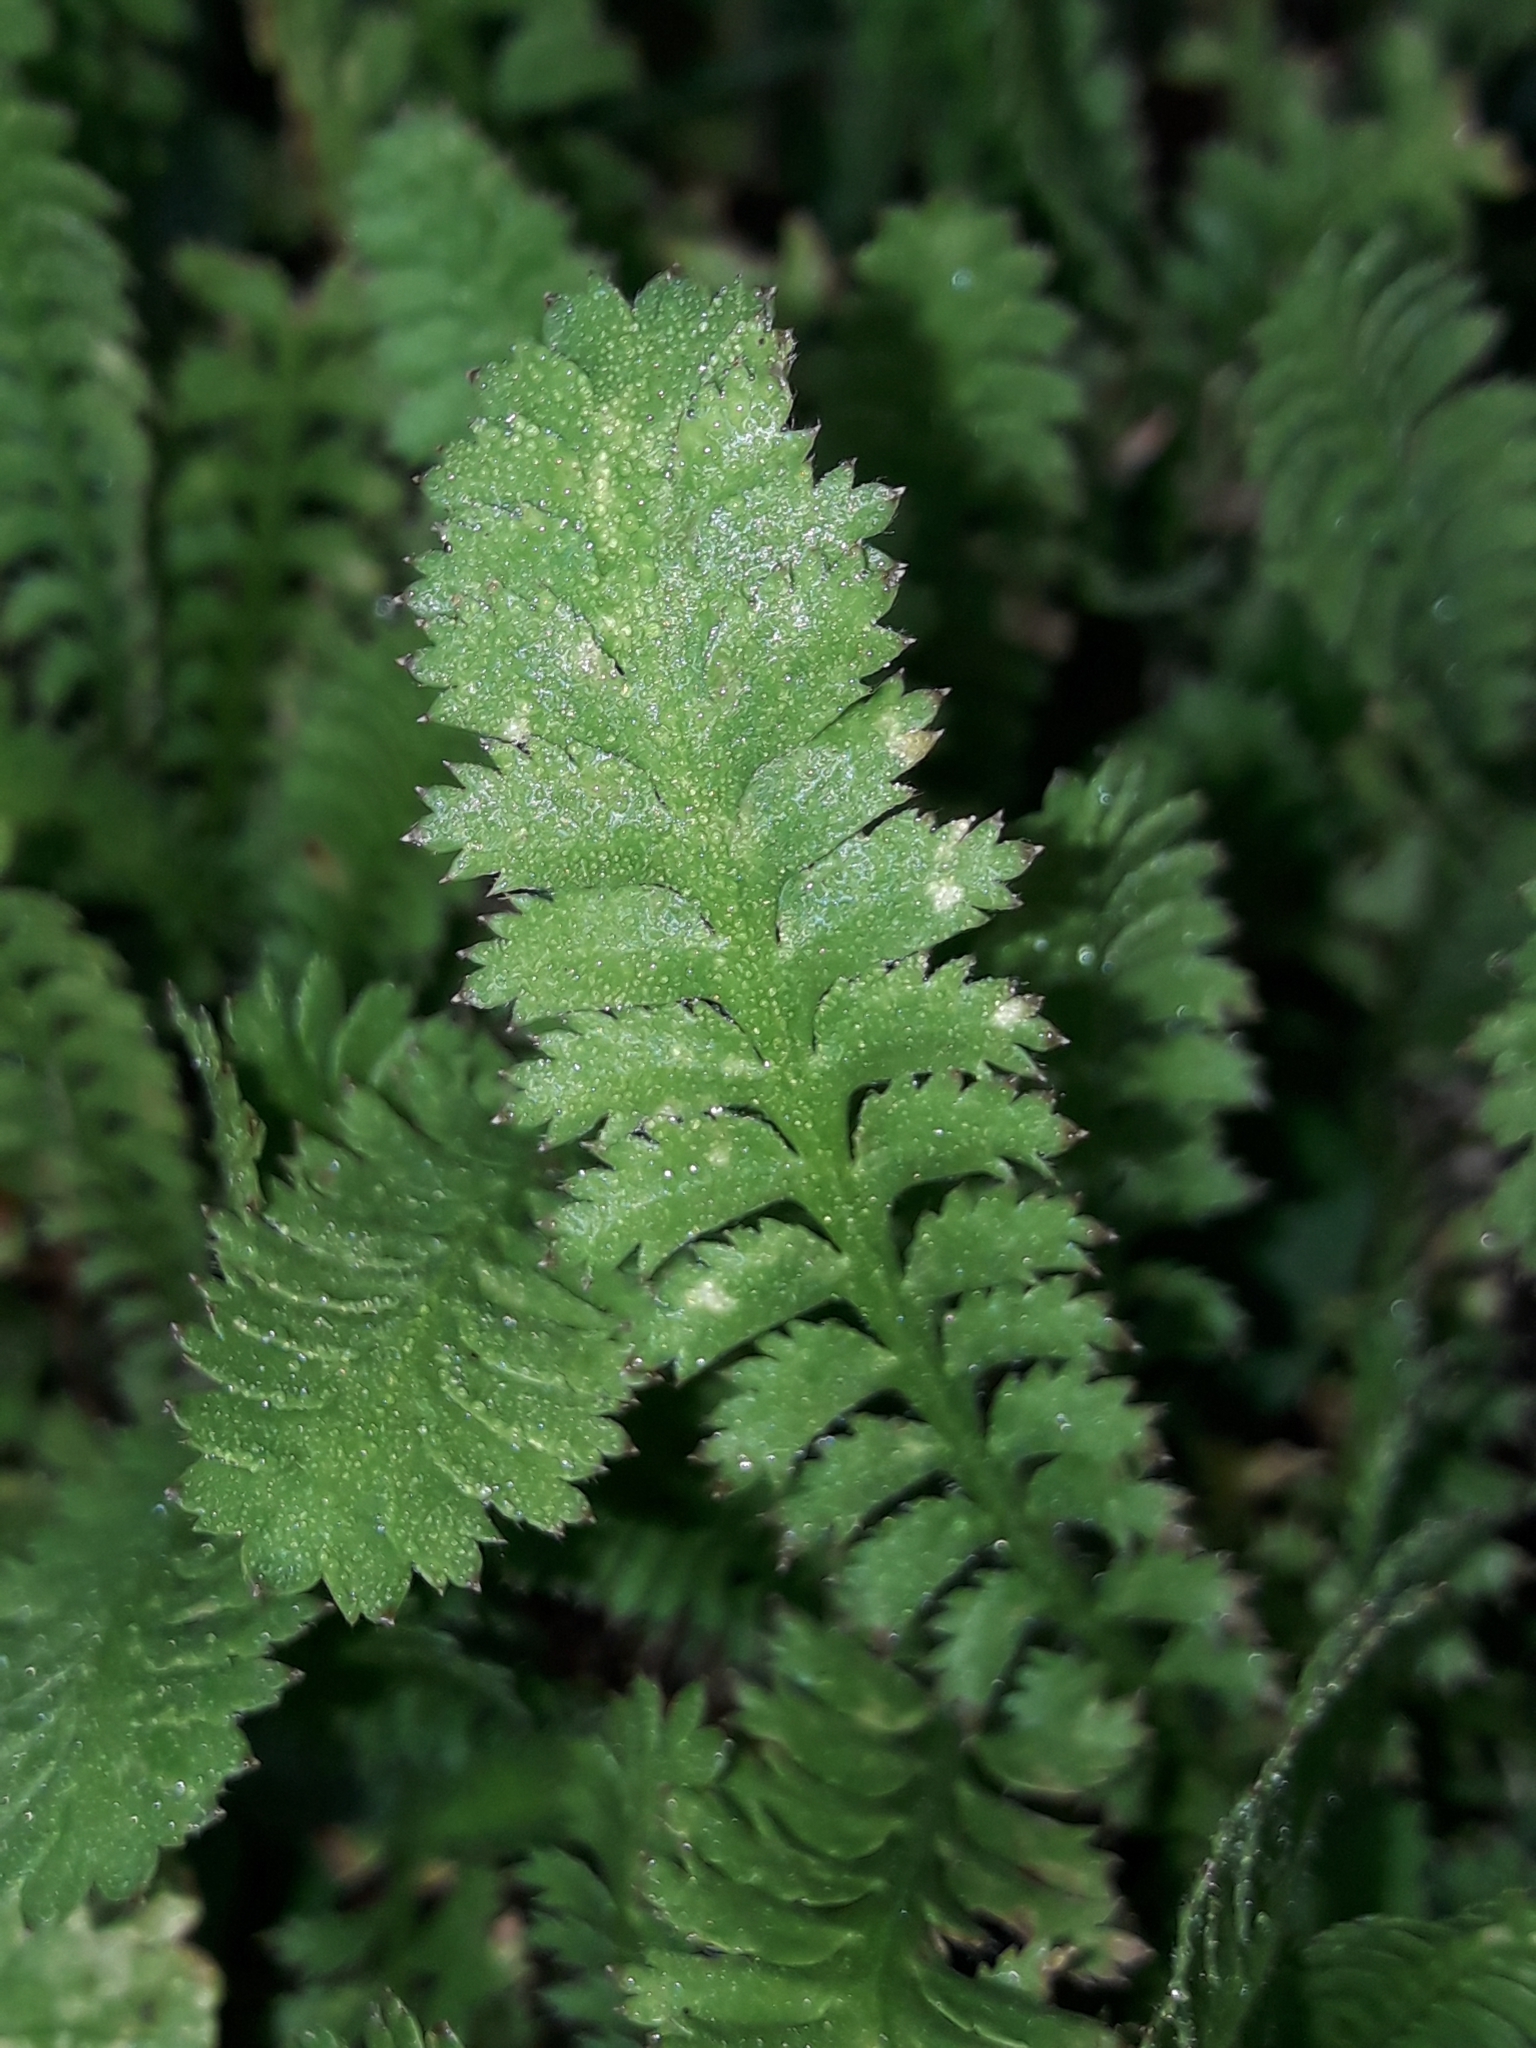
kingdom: Plantae
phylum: Tracheophyta
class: Magnoliopsida
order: Asterales
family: Asteraceae
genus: Leptinella
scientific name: Leptinella squalida
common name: New zealand brass-buttons
